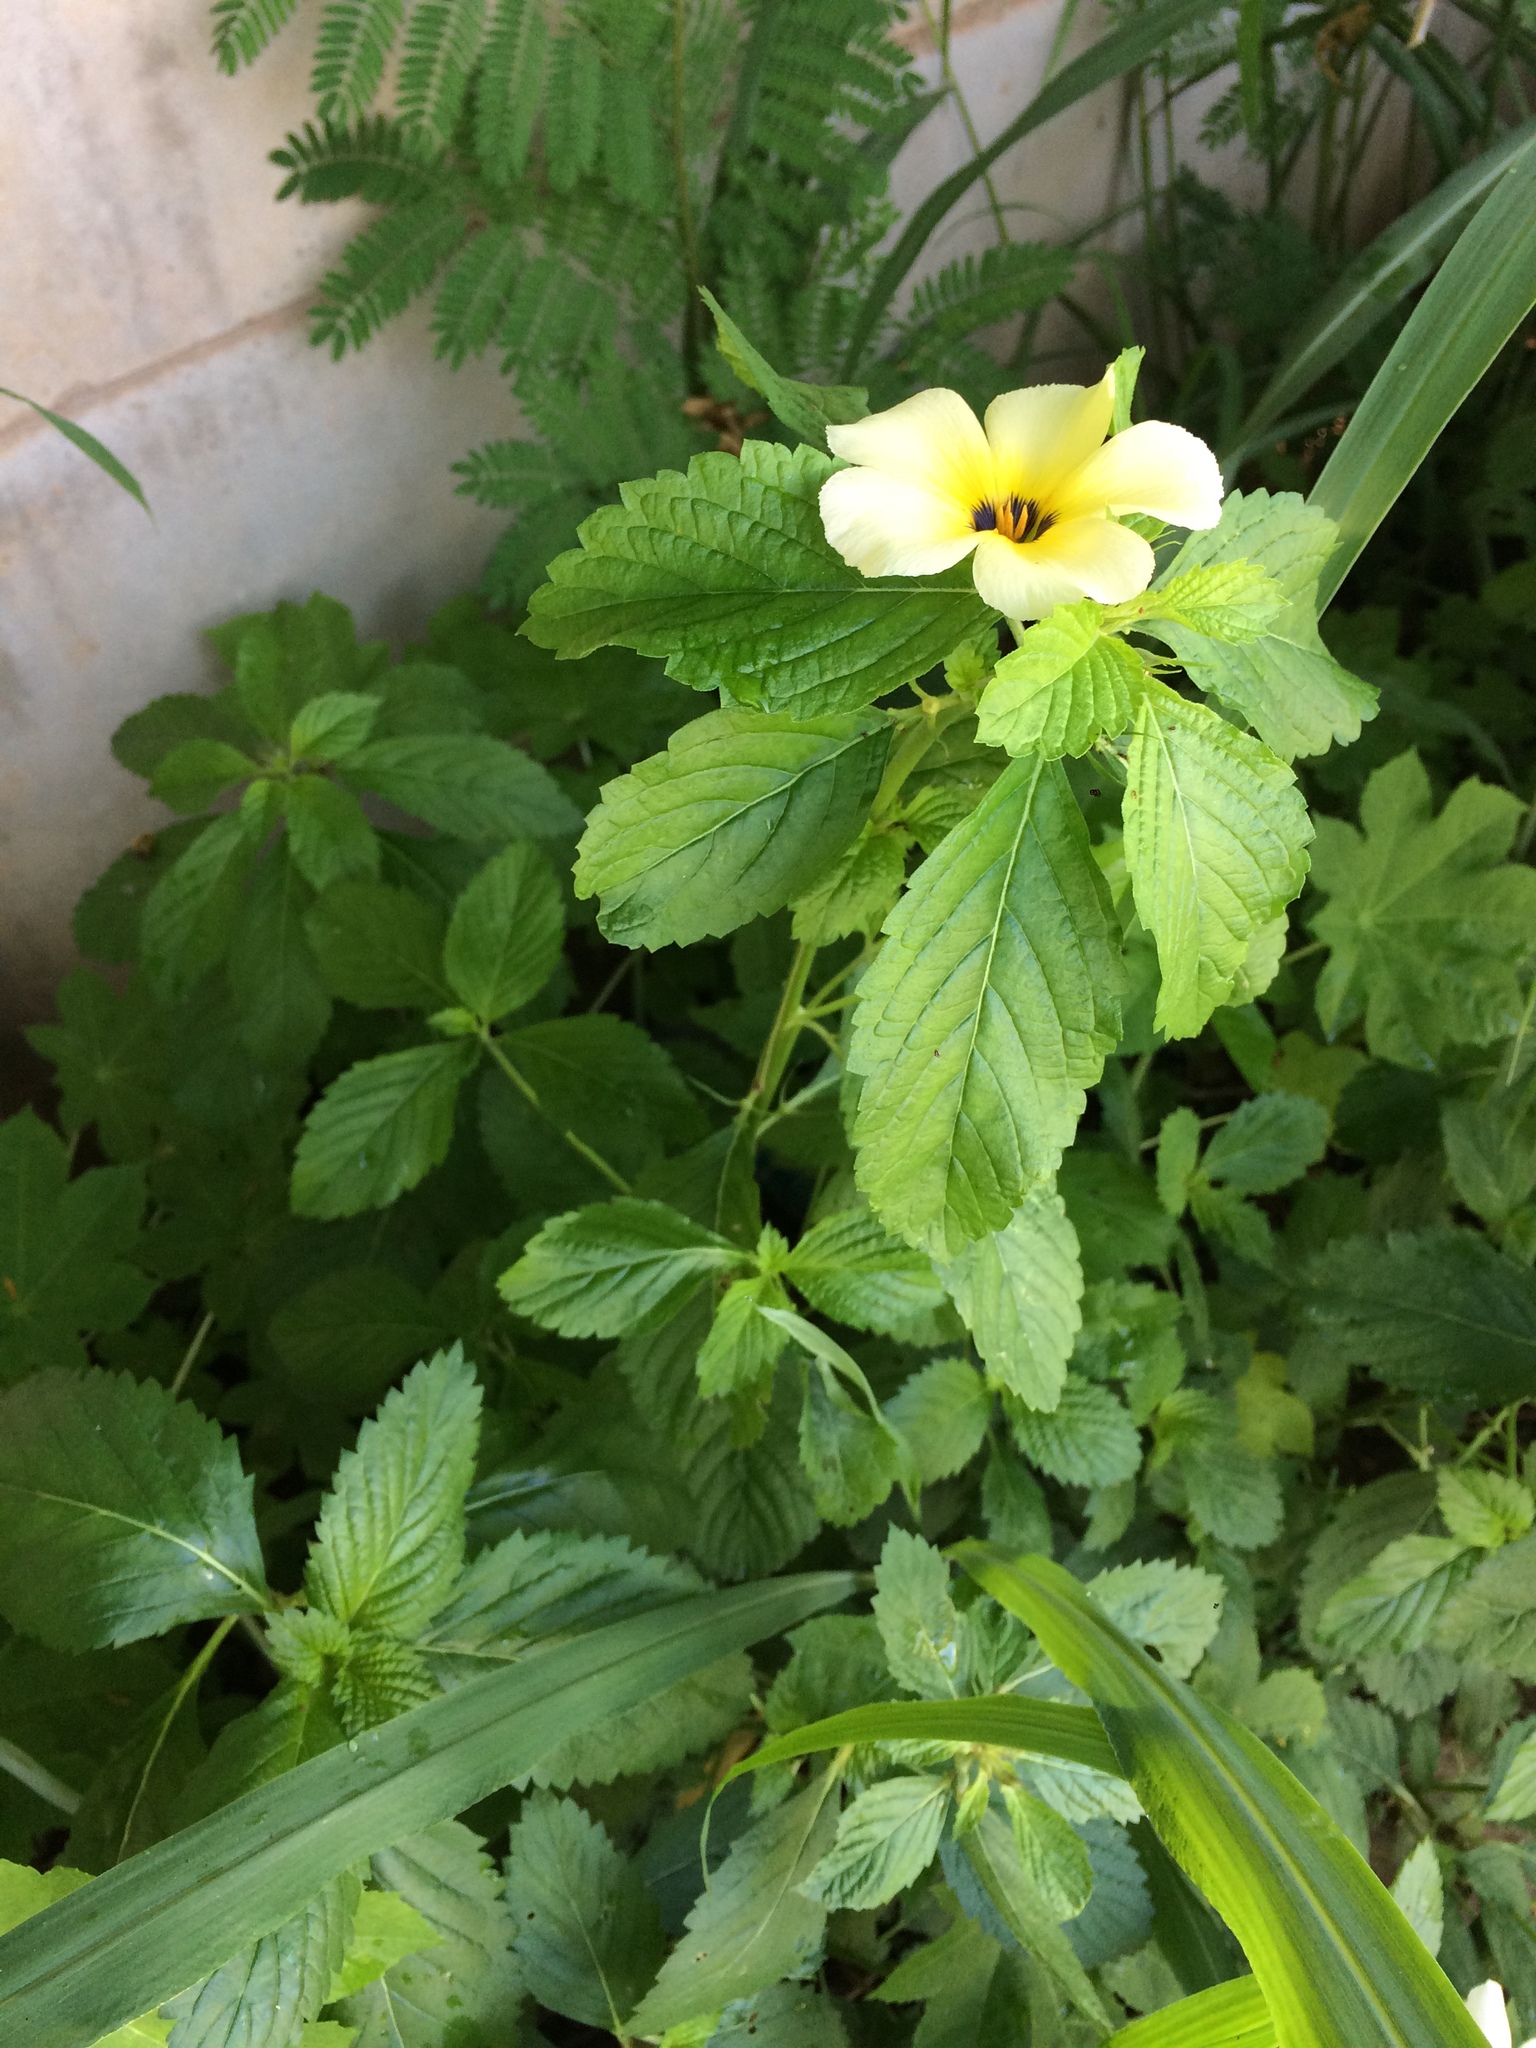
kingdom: Plantae
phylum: Tracheophyta
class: Magnoliopsida
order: Malpighiales
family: Turneraceae
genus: Turnera
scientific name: Turnera subulata
